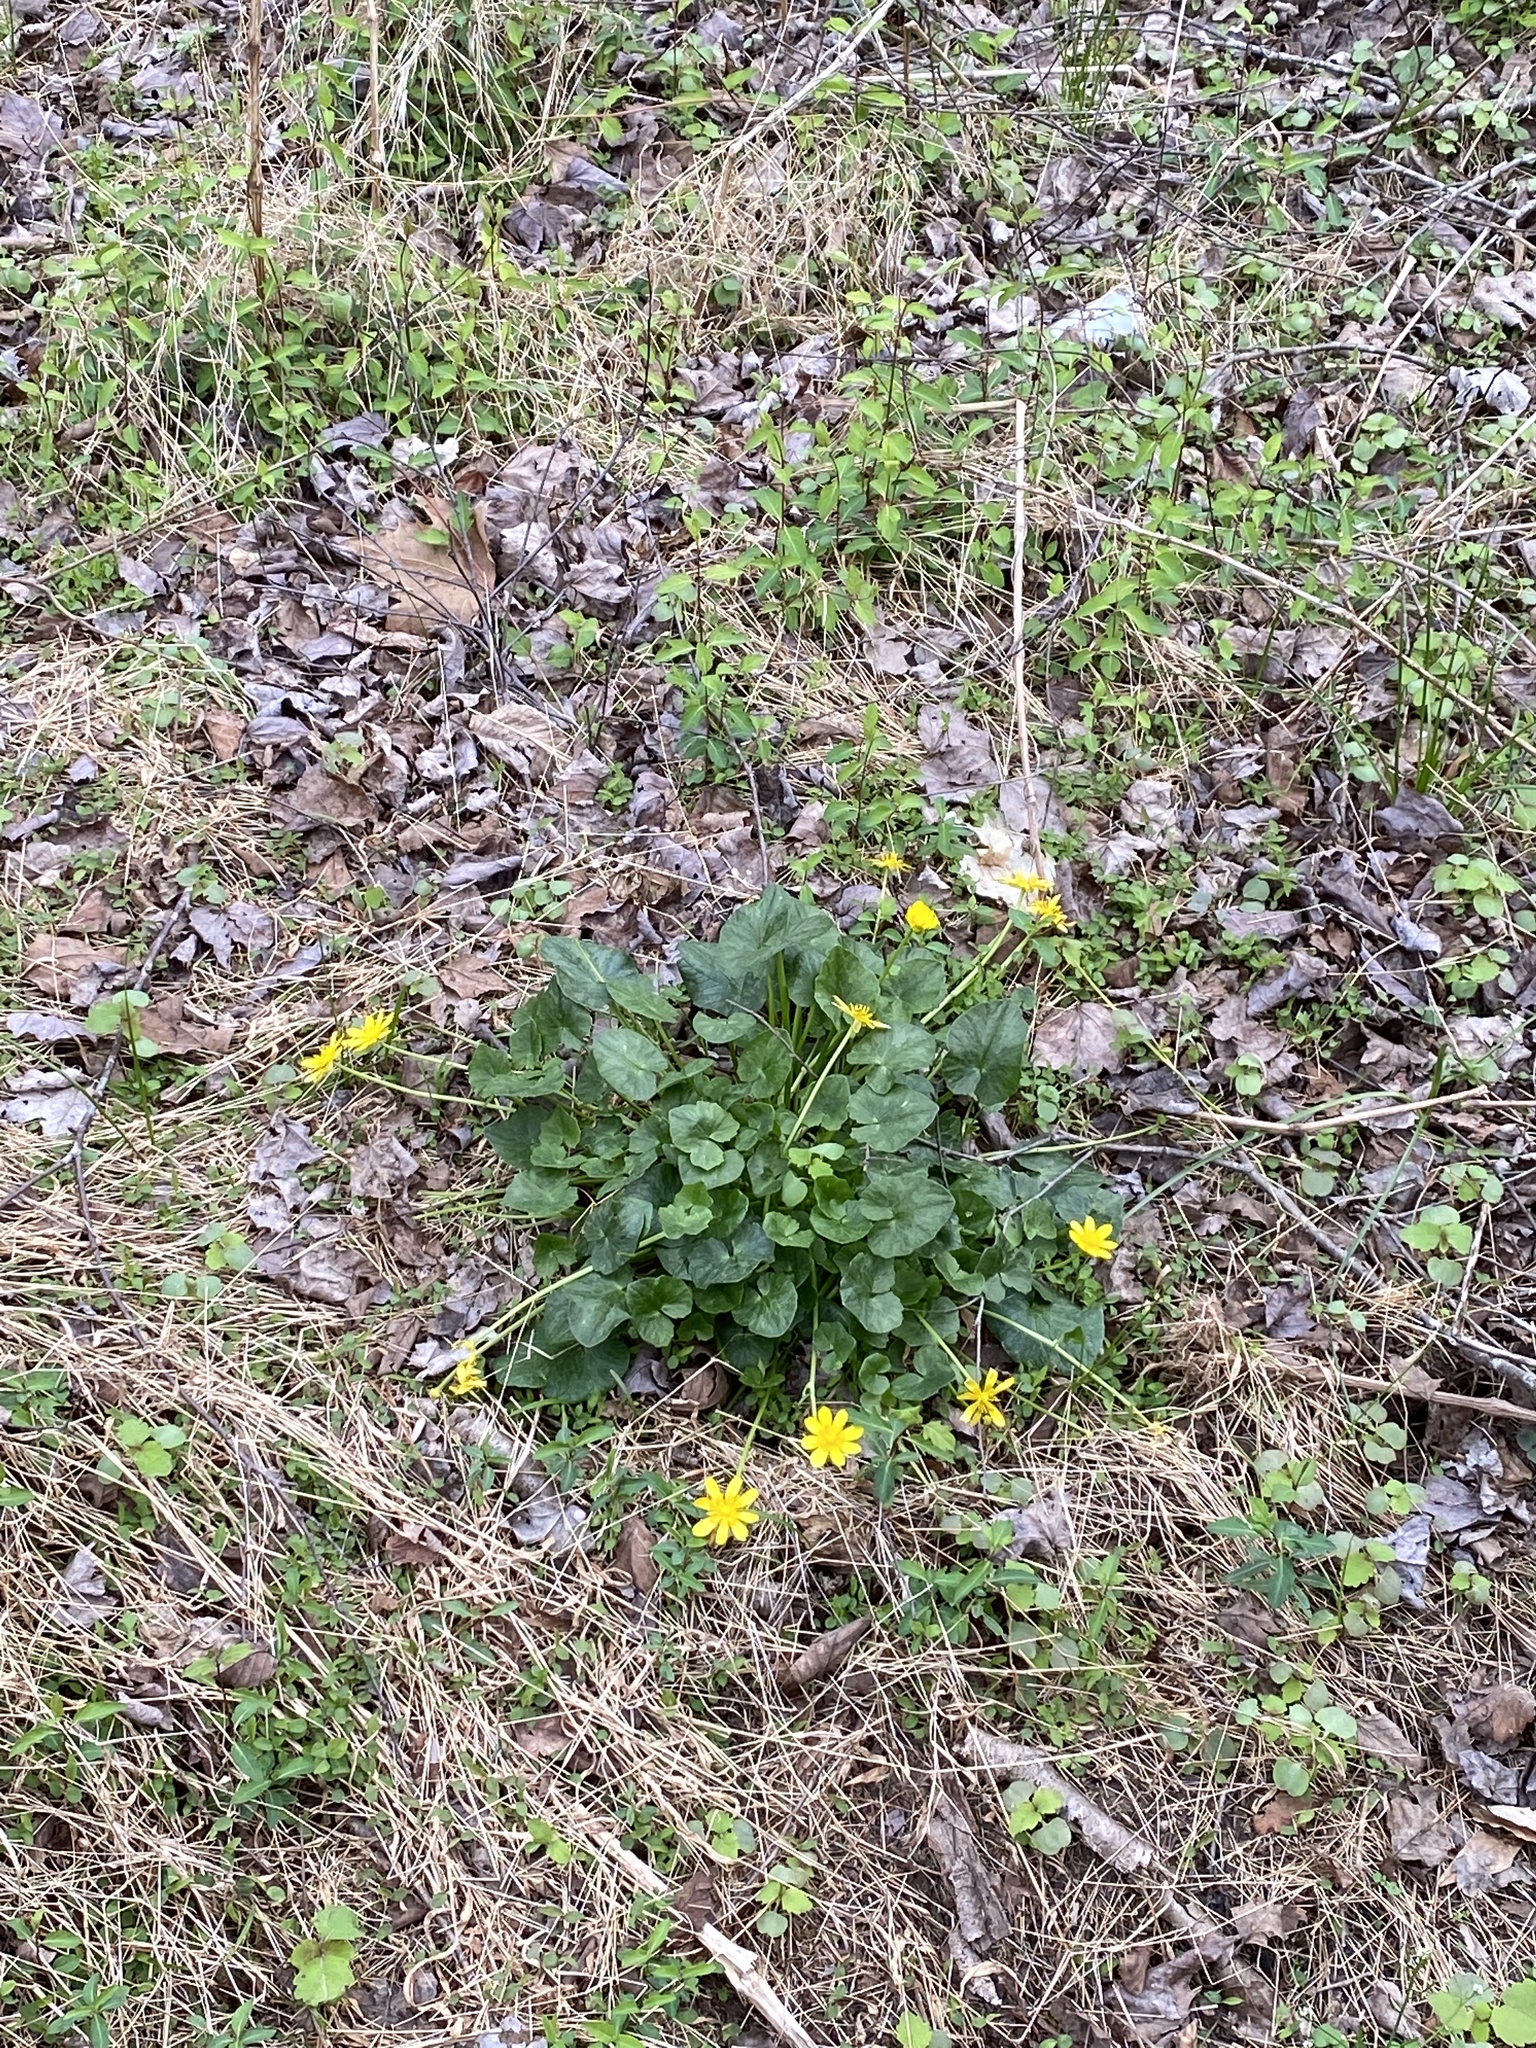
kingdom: Plantae
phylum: Tracheophyta
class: Magnoliopsida
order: Ranunculales
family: Ranunculaceae
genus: Ficaria
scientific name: Ficaria verna
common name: Lesser celandine
